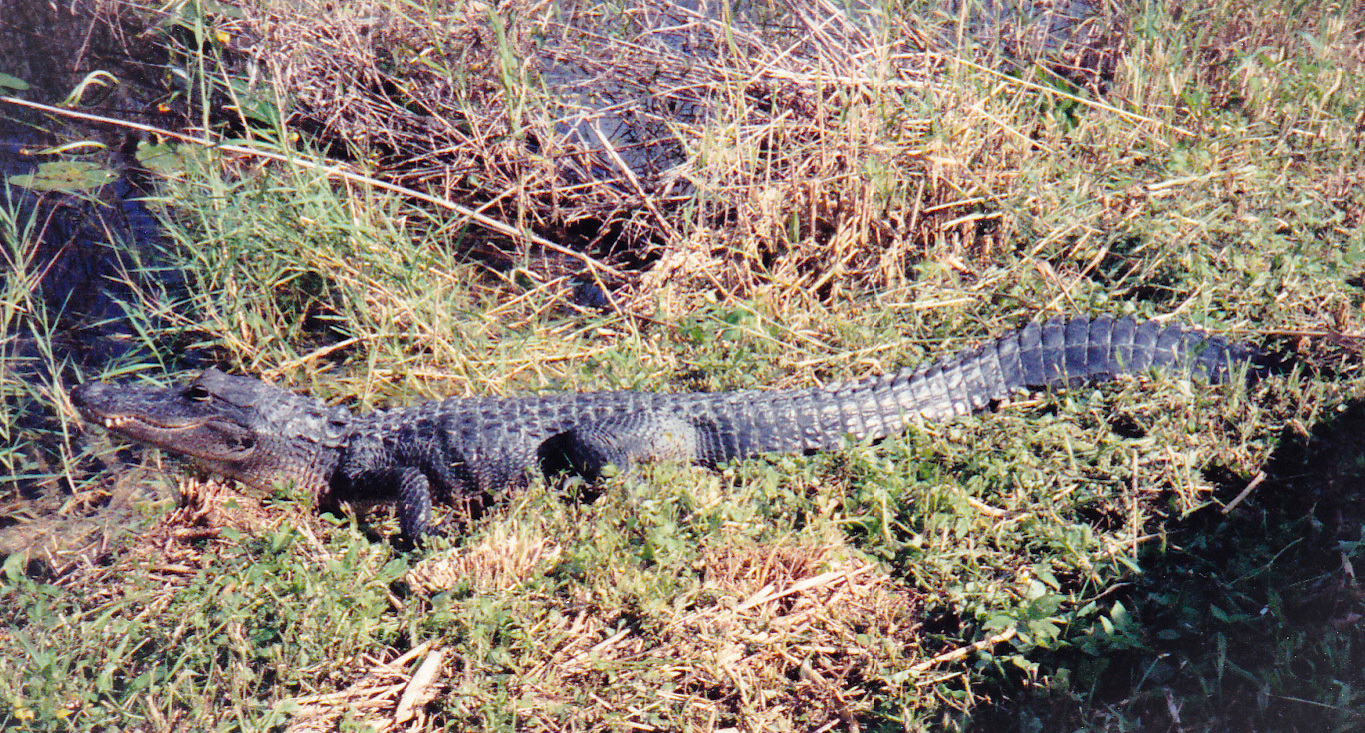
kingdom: Animalia
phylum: Chordata
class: Crocodylia
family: Alligatoridae
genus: Alligator
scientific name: Alligator mississippiensis
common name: American alligator
